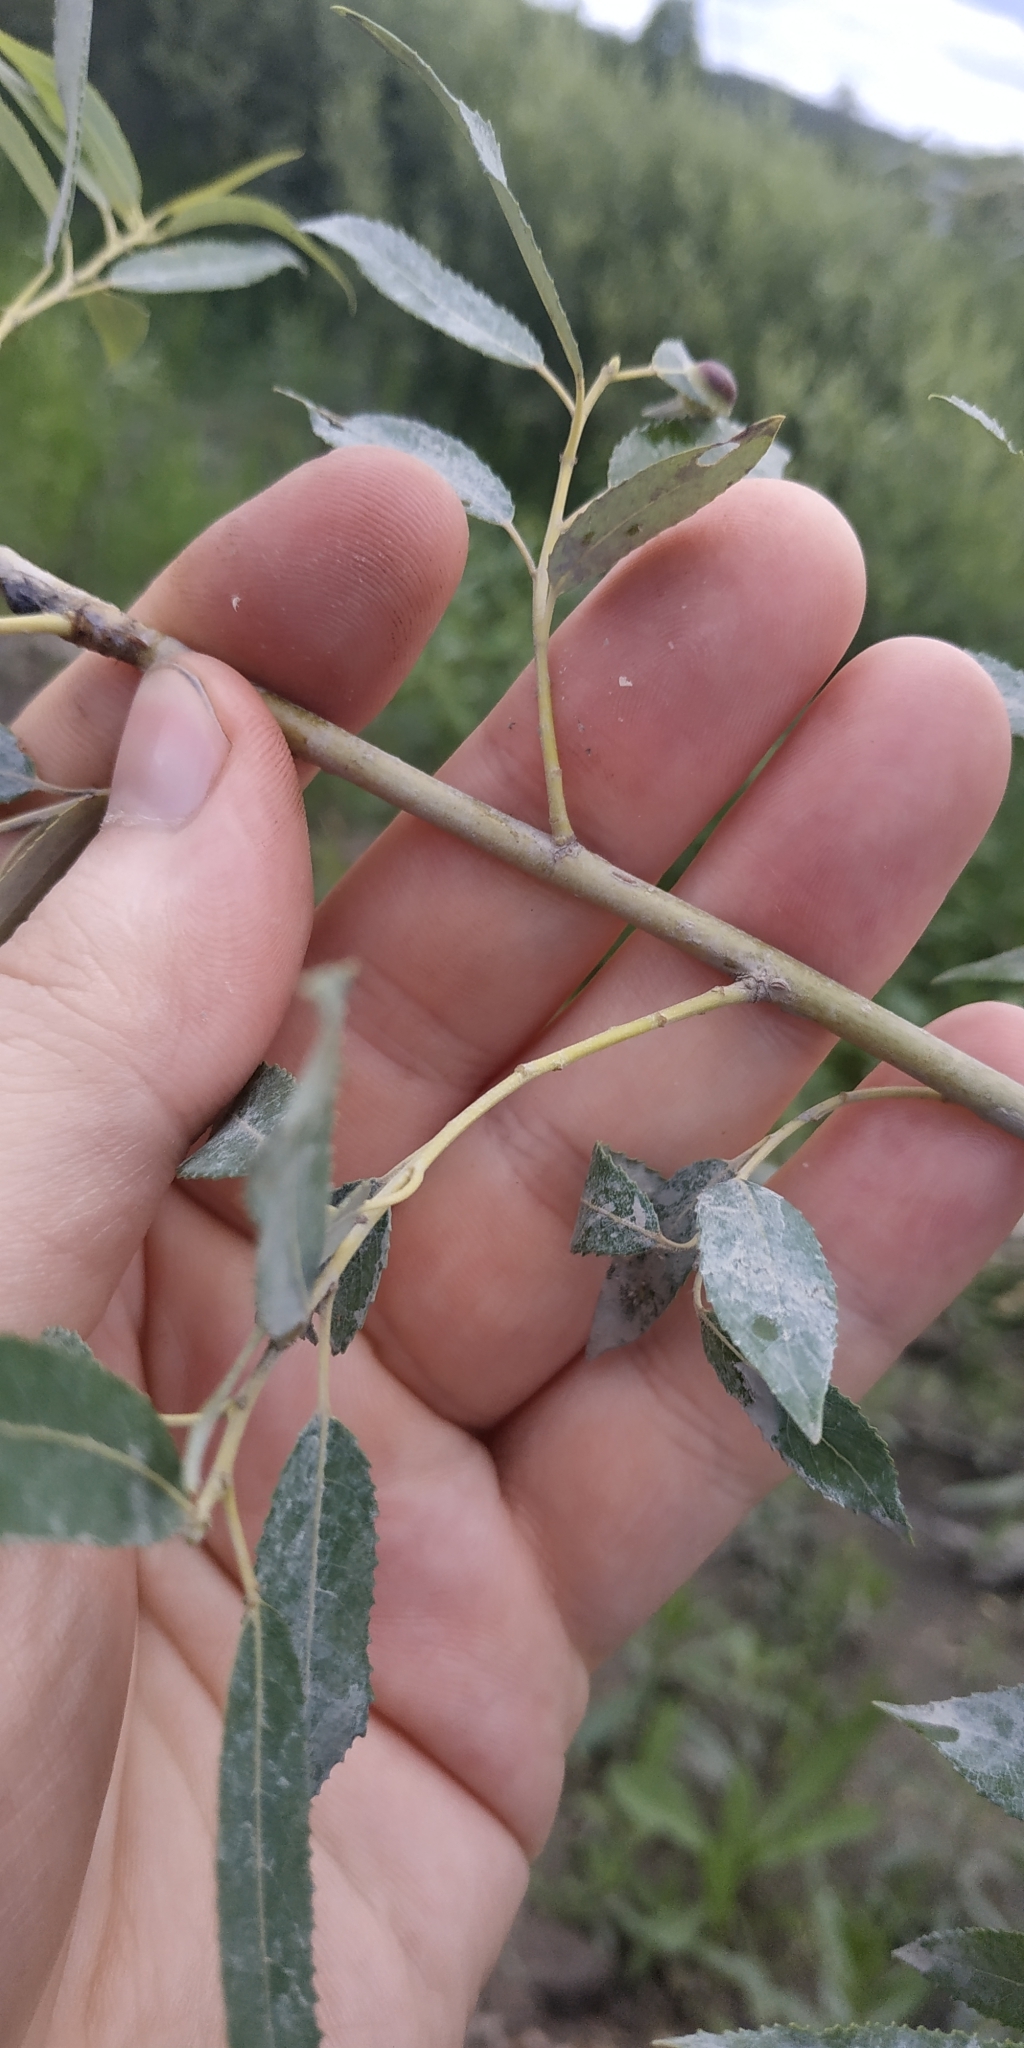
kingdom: Plantae
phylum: Tracheophyta
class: Magnoliopsida
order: Malpighiales
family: Salicaceae
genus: Salix
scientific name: Salix triandra
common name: Almond willow
